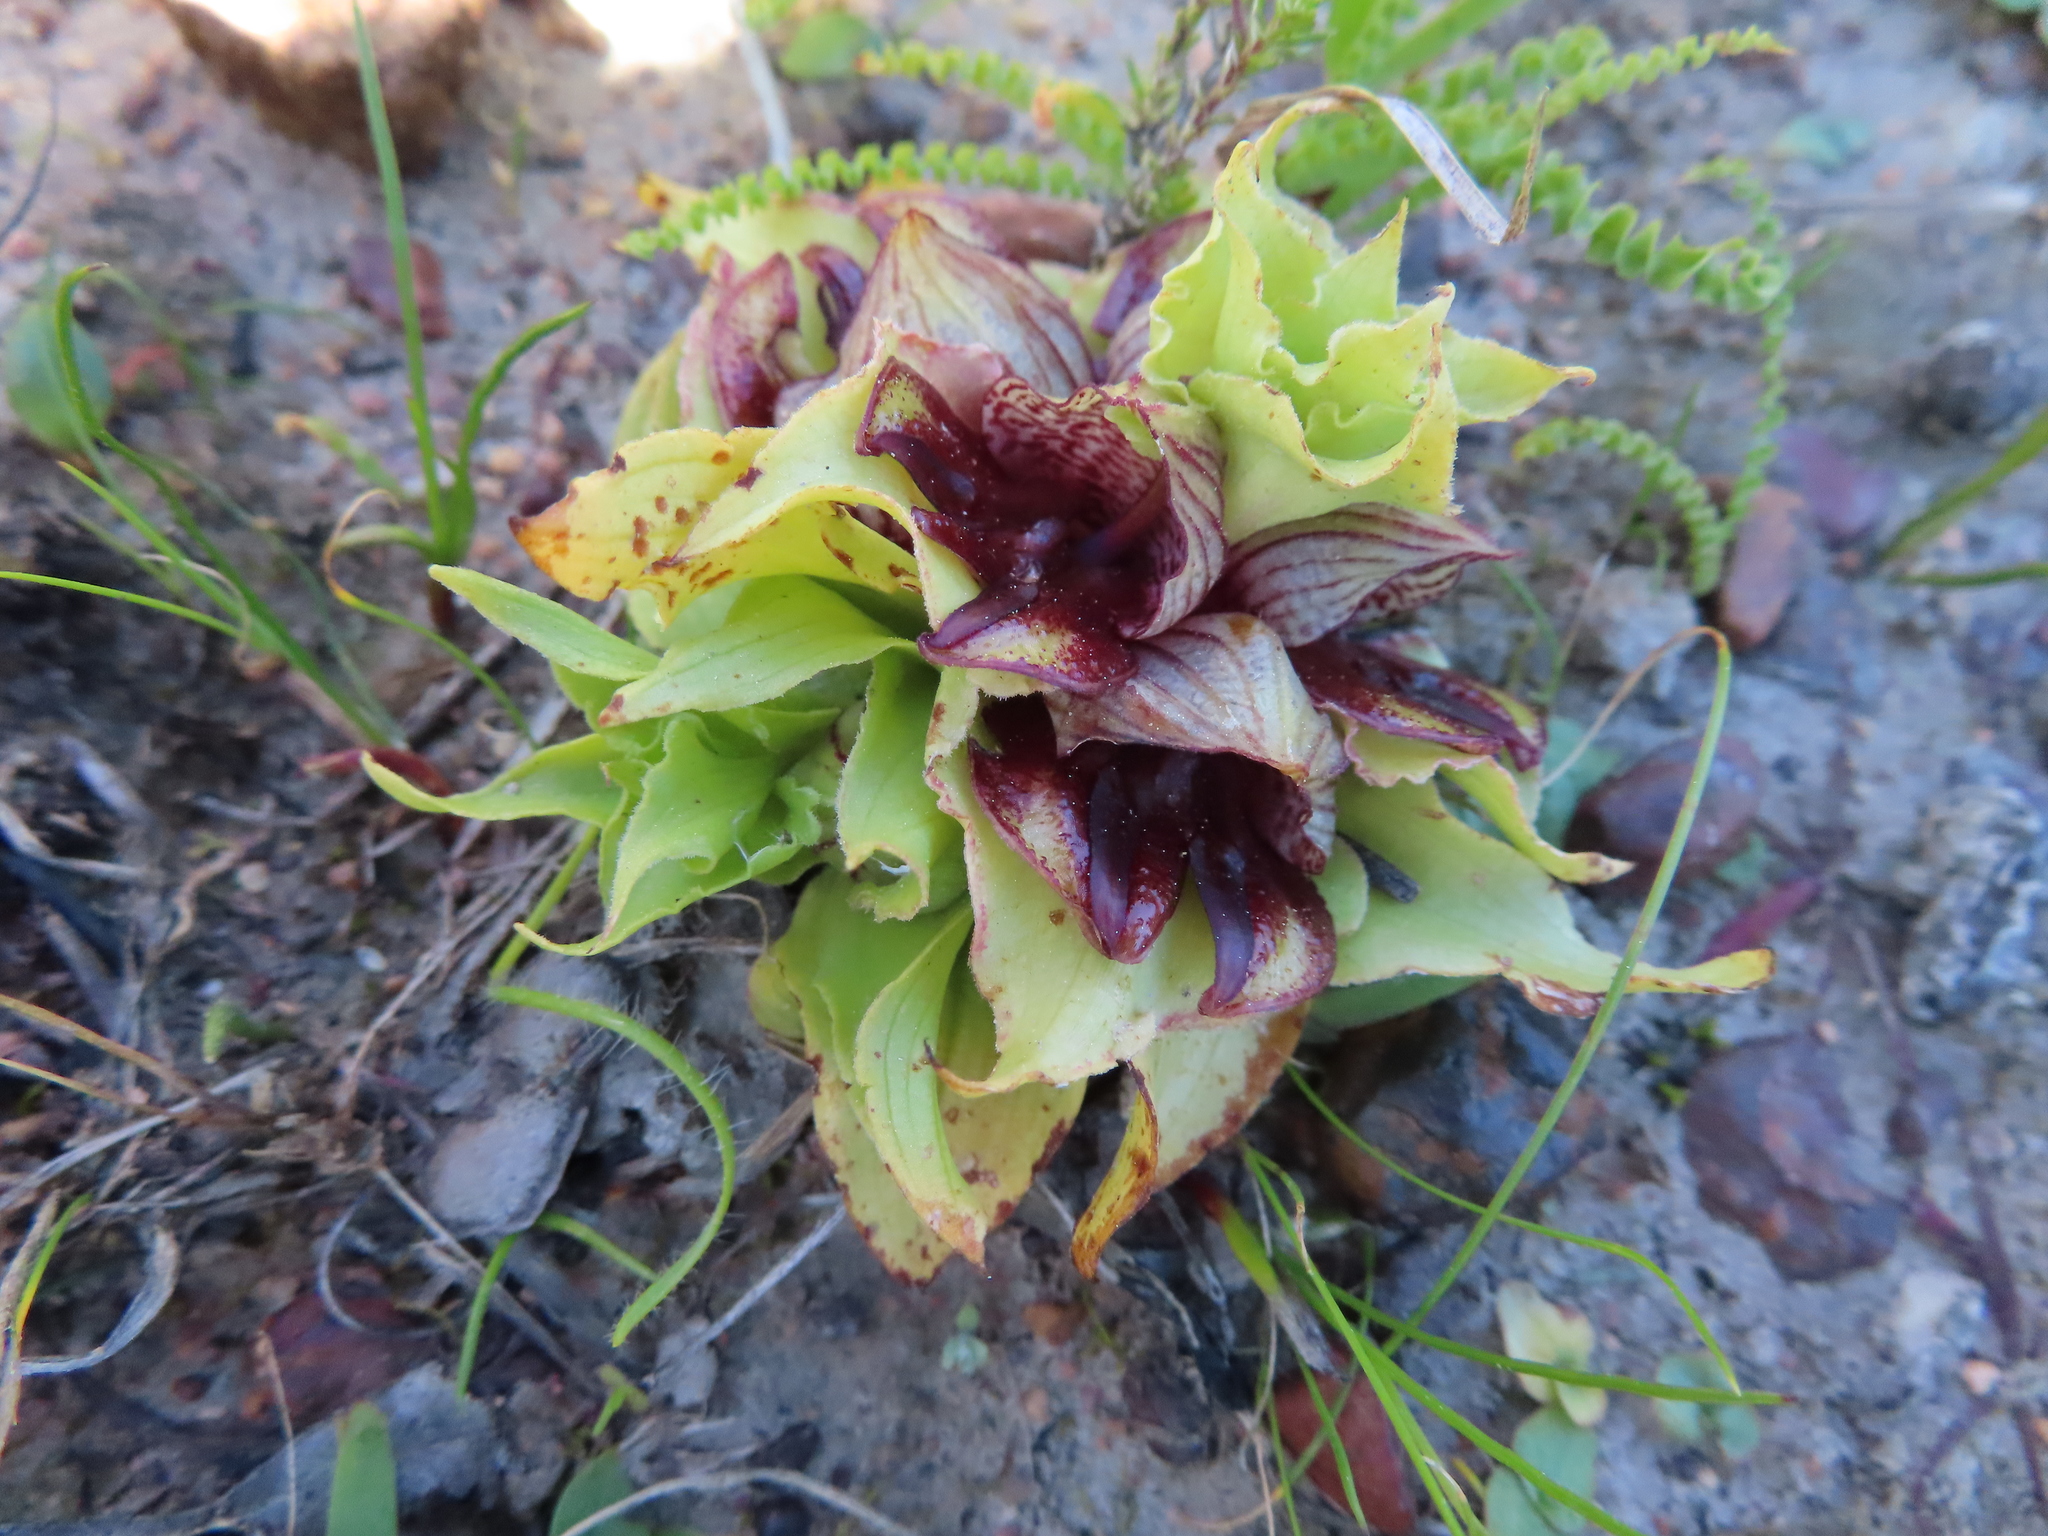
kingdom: Plantae
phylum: Tracheophyta
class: Liliopsida
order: Asparagales
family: Orchidaceae
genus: Satyrium
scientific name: Satyrium pumilum
